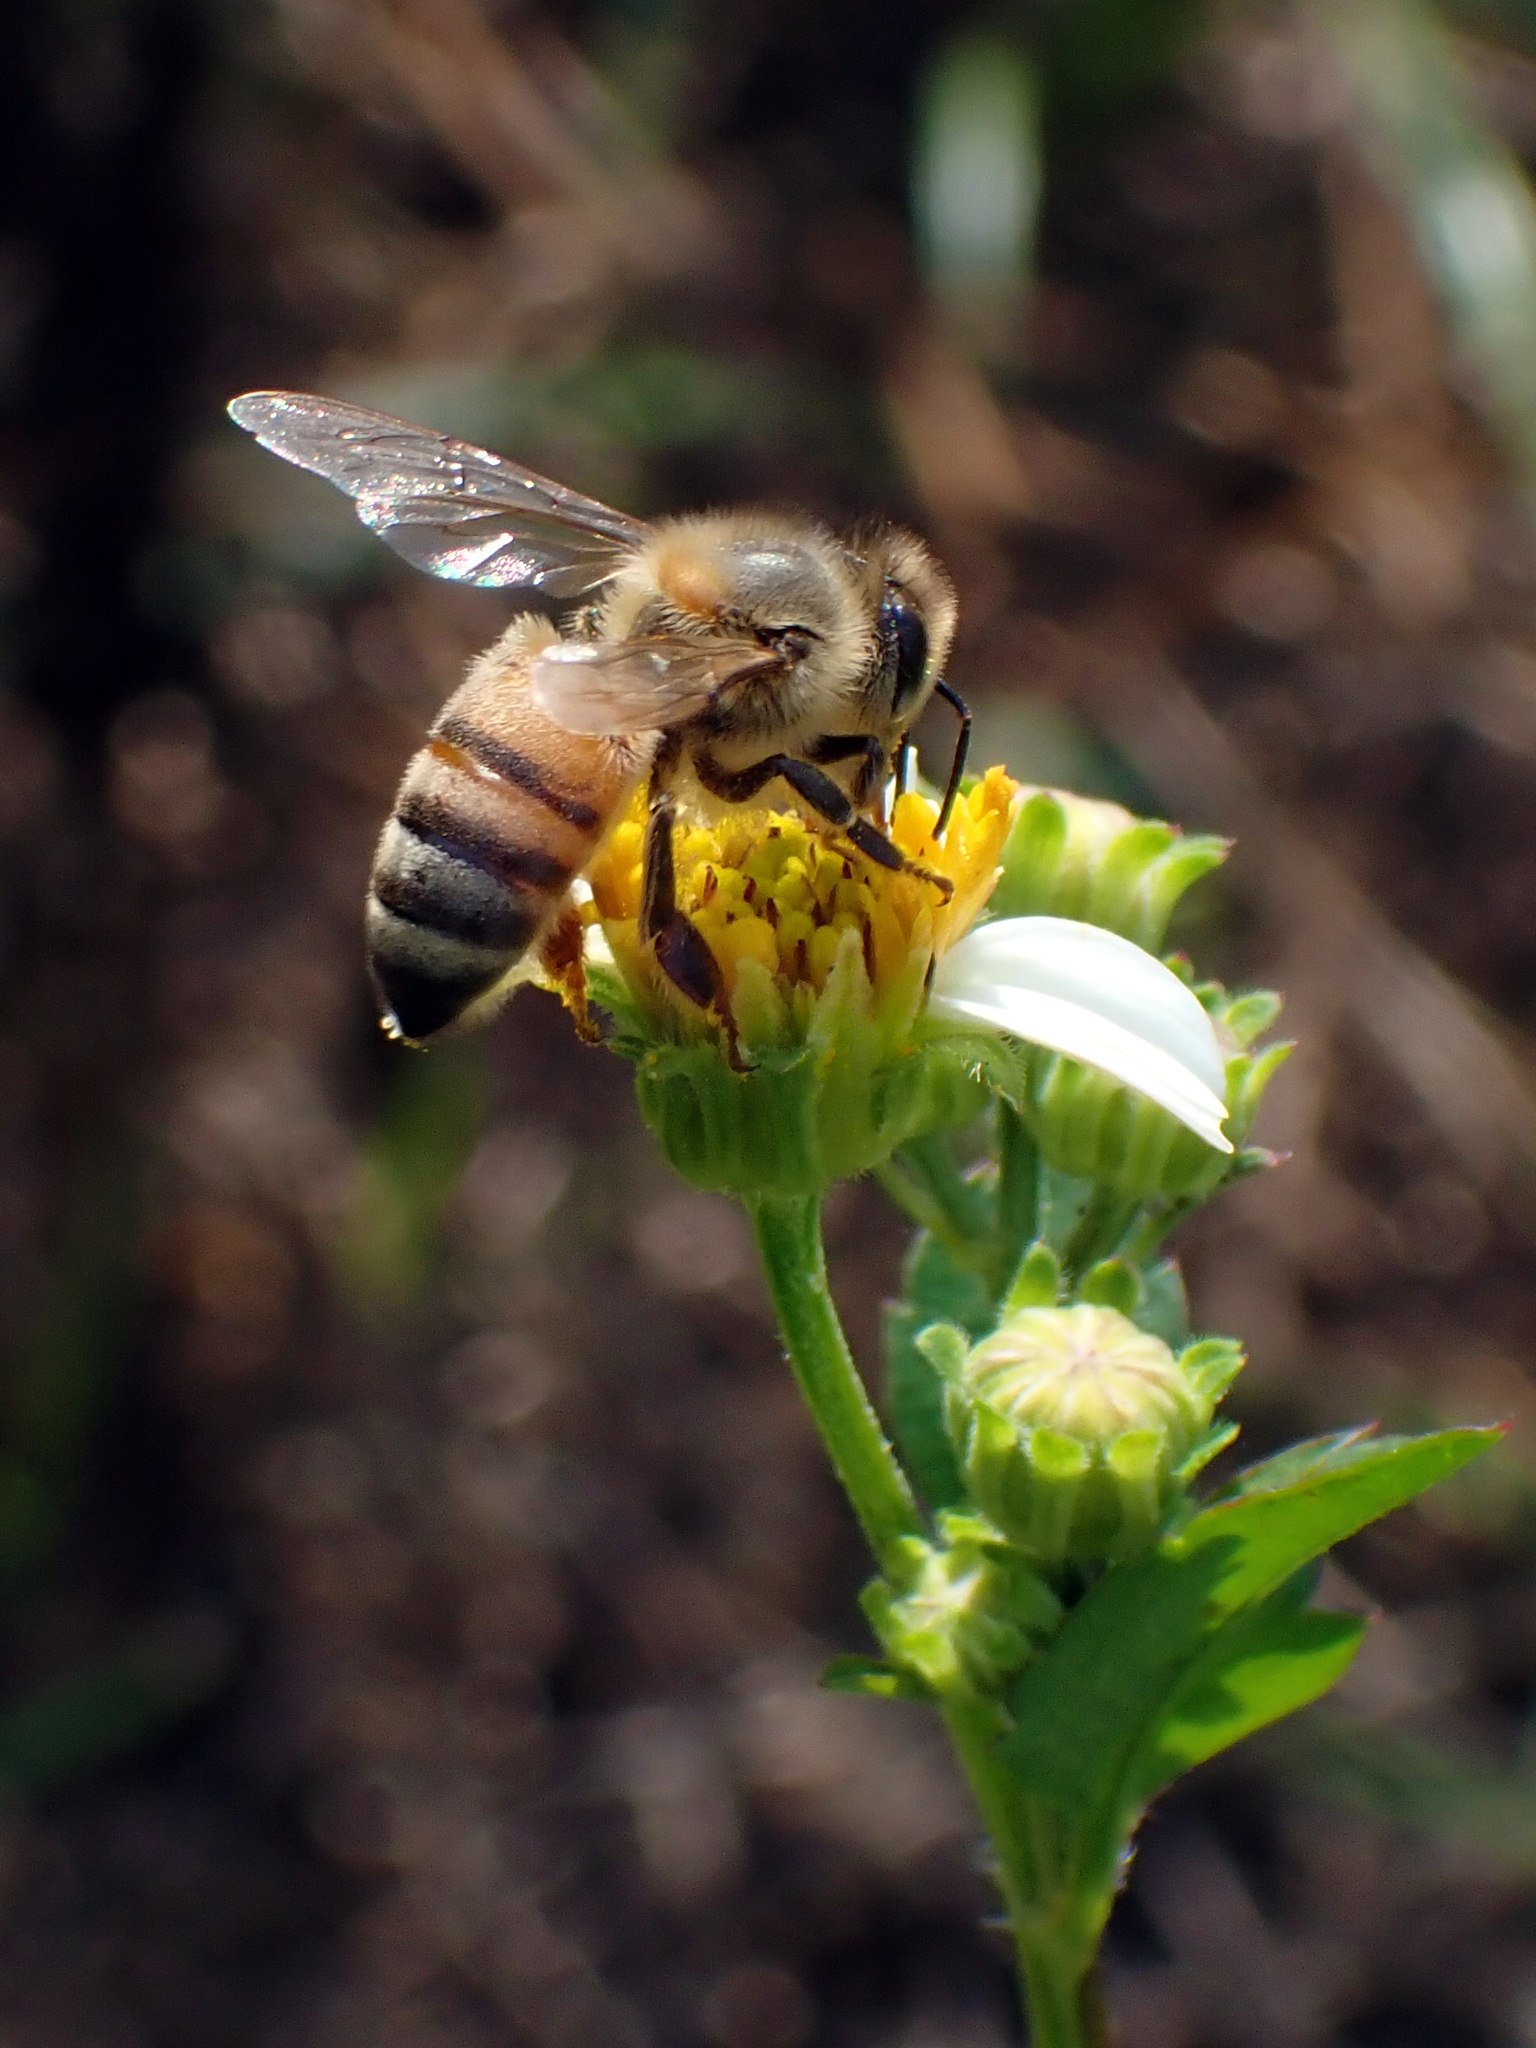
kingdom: Animalia
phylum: Arthropoda
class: Insecta
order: Hymenoptera
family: Apidae
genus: Apis
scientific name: Apis mellifera
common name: Honey bee
